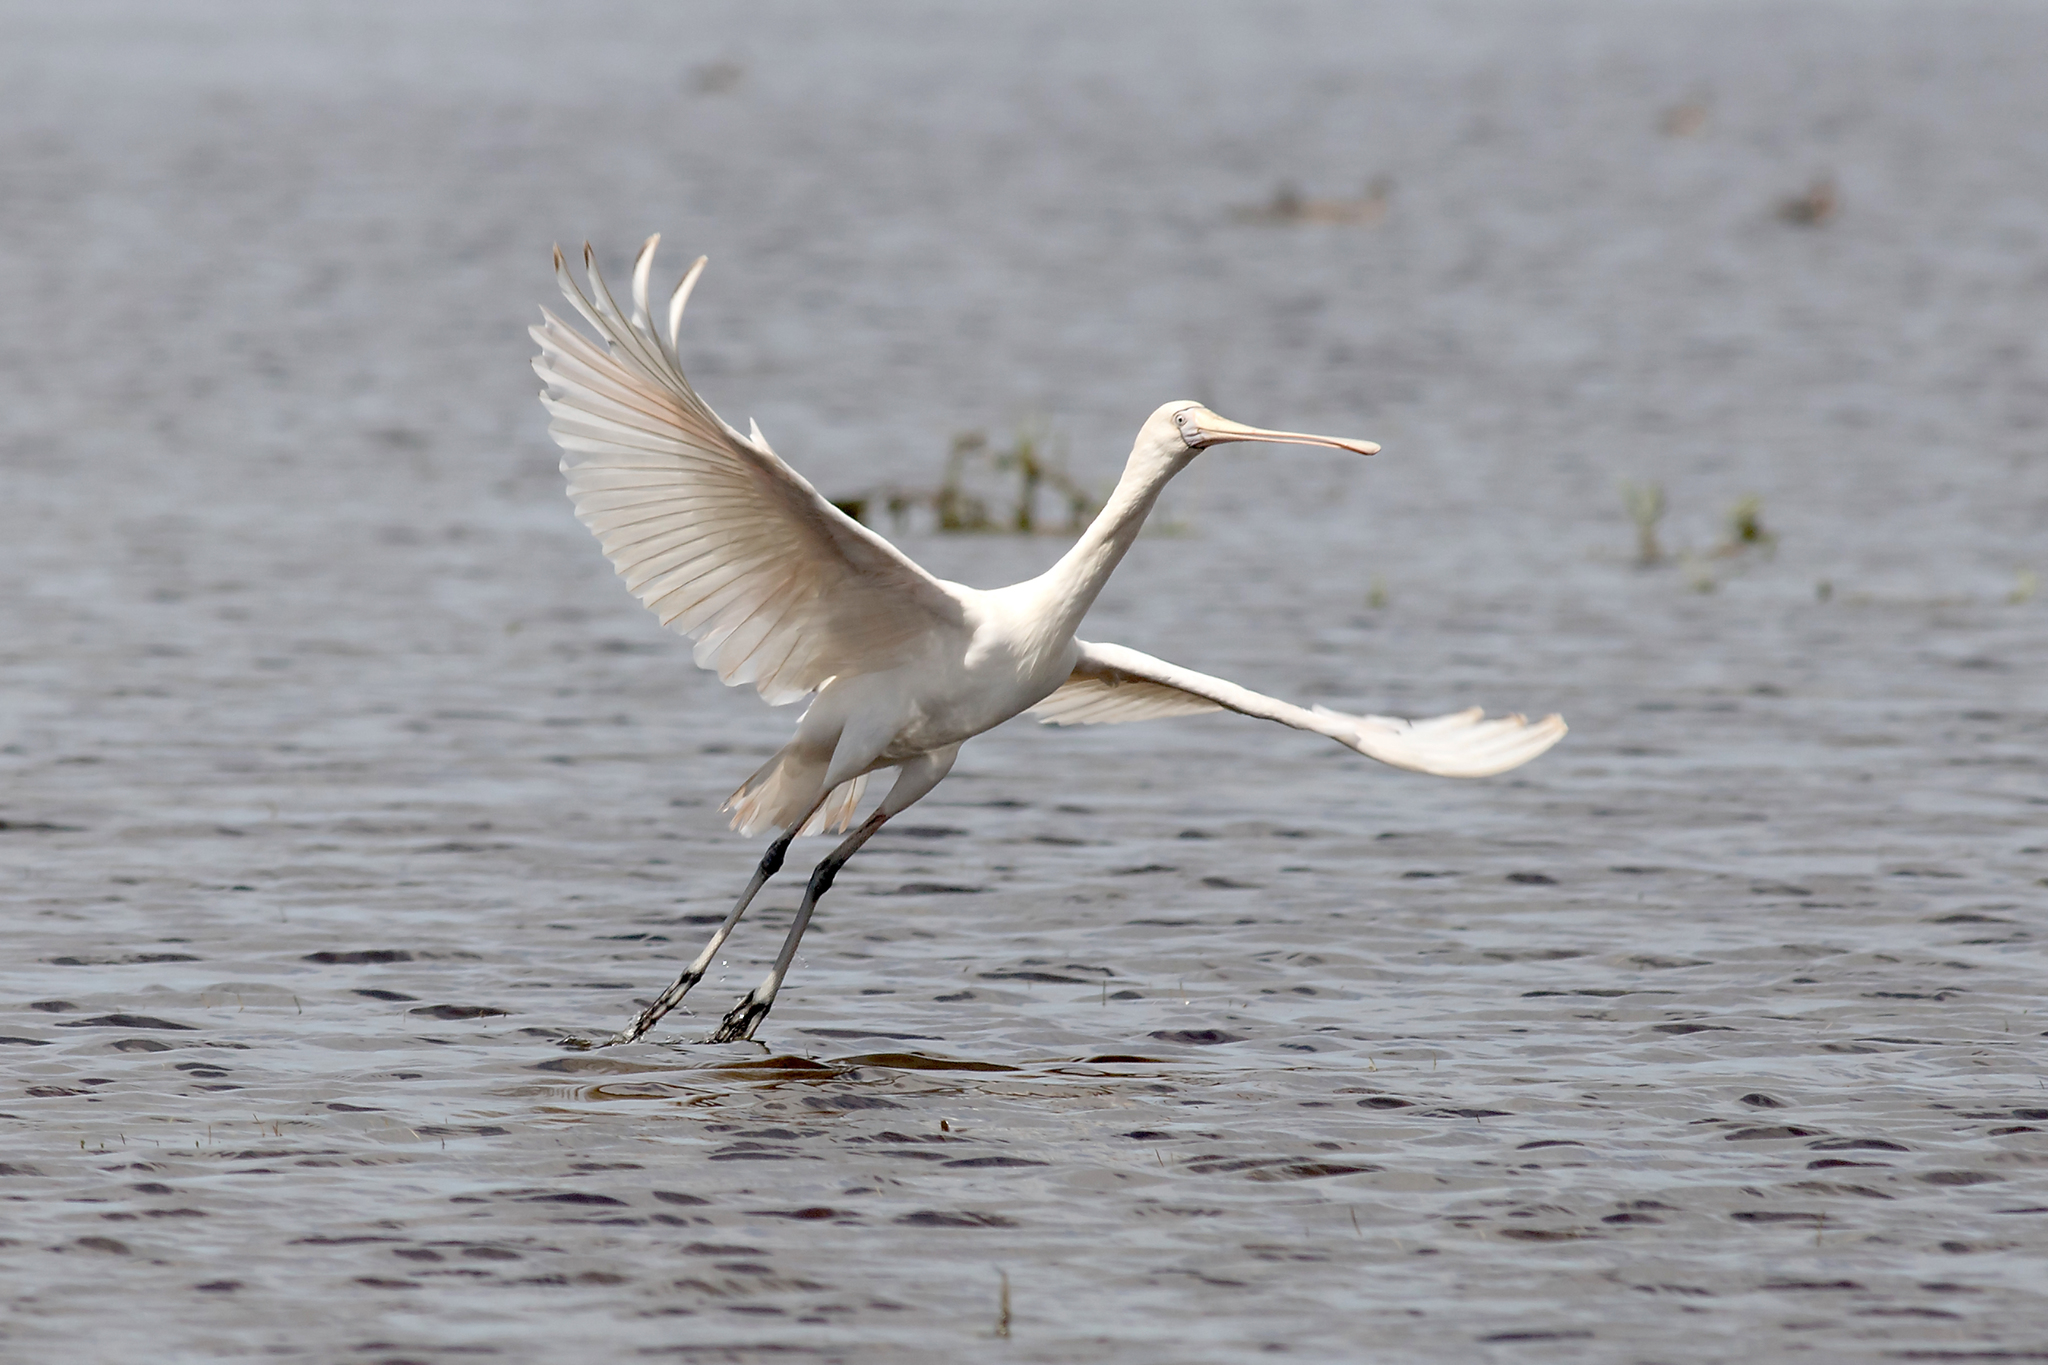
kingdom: Animalia
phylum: Chordata
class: Aves
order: Pelecaniformes
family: Threskiornithidae
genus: Platalea
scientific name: Platalea flavipes
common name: Yellow-billed spoonbill
